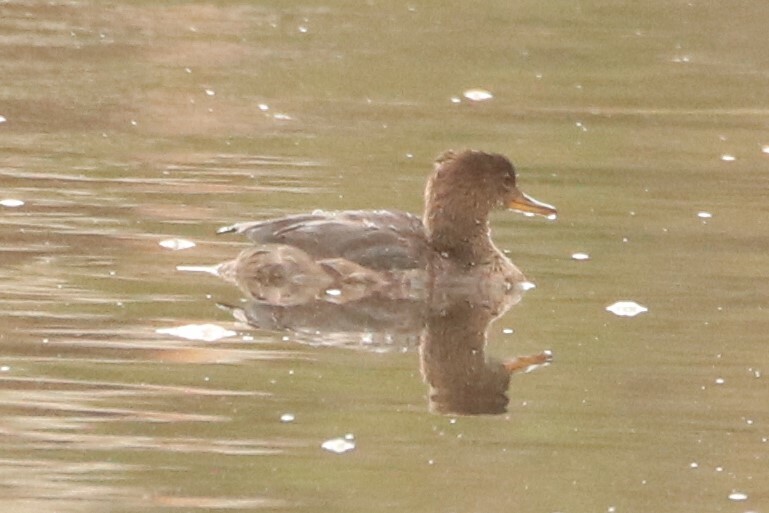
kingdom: Animalia
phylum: Chordata
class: Aves
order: Anseriformes
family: Anatidae
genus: Lophodytes
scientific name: Lophodytes cucullatus
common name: Hooded merganser
